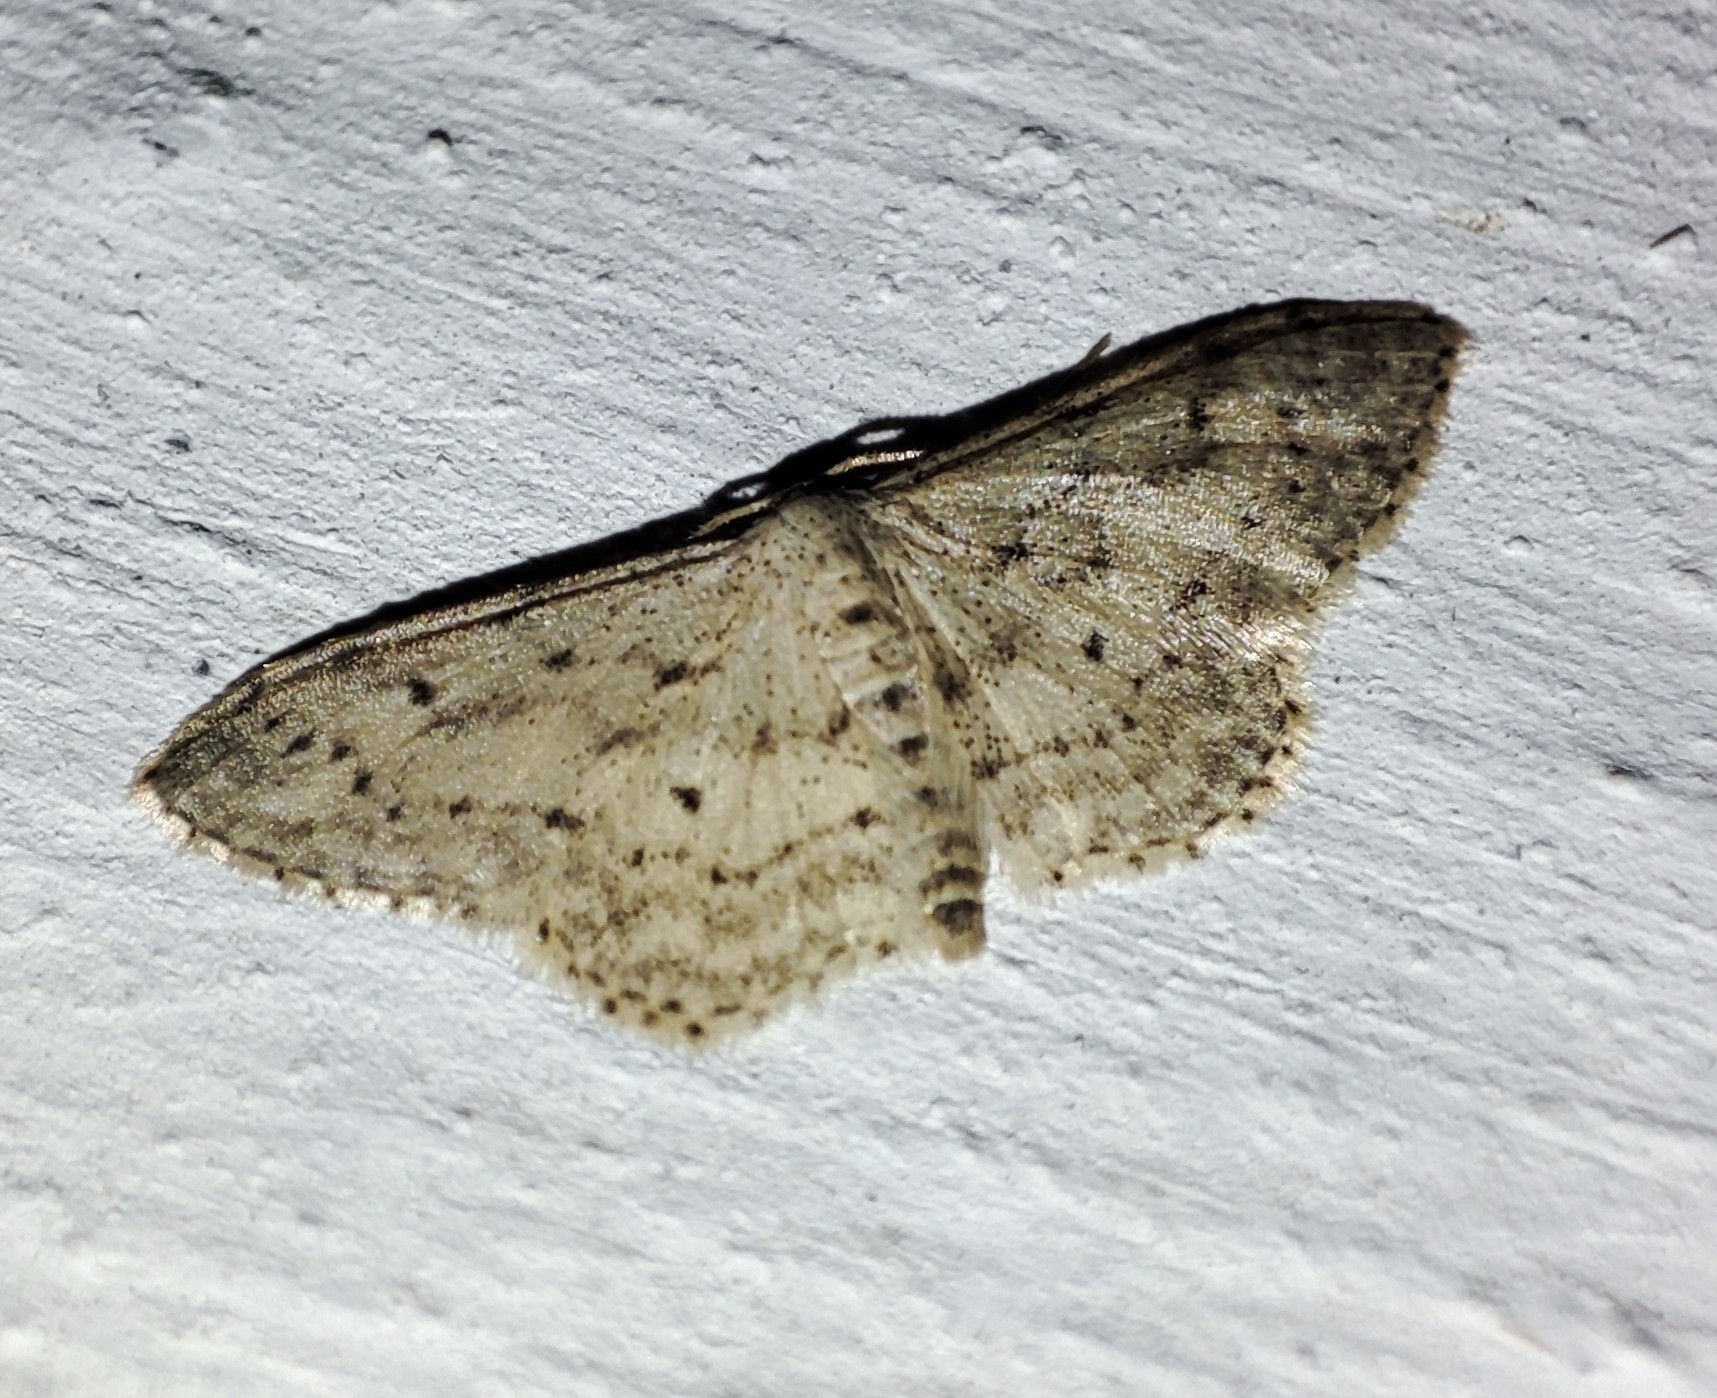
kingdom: Animalia
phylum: Arthropoda
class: Insecta
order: Lepidoptera
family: Geometridae
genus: Idaea
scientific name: Idaea seriata
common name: Small dusty wave
